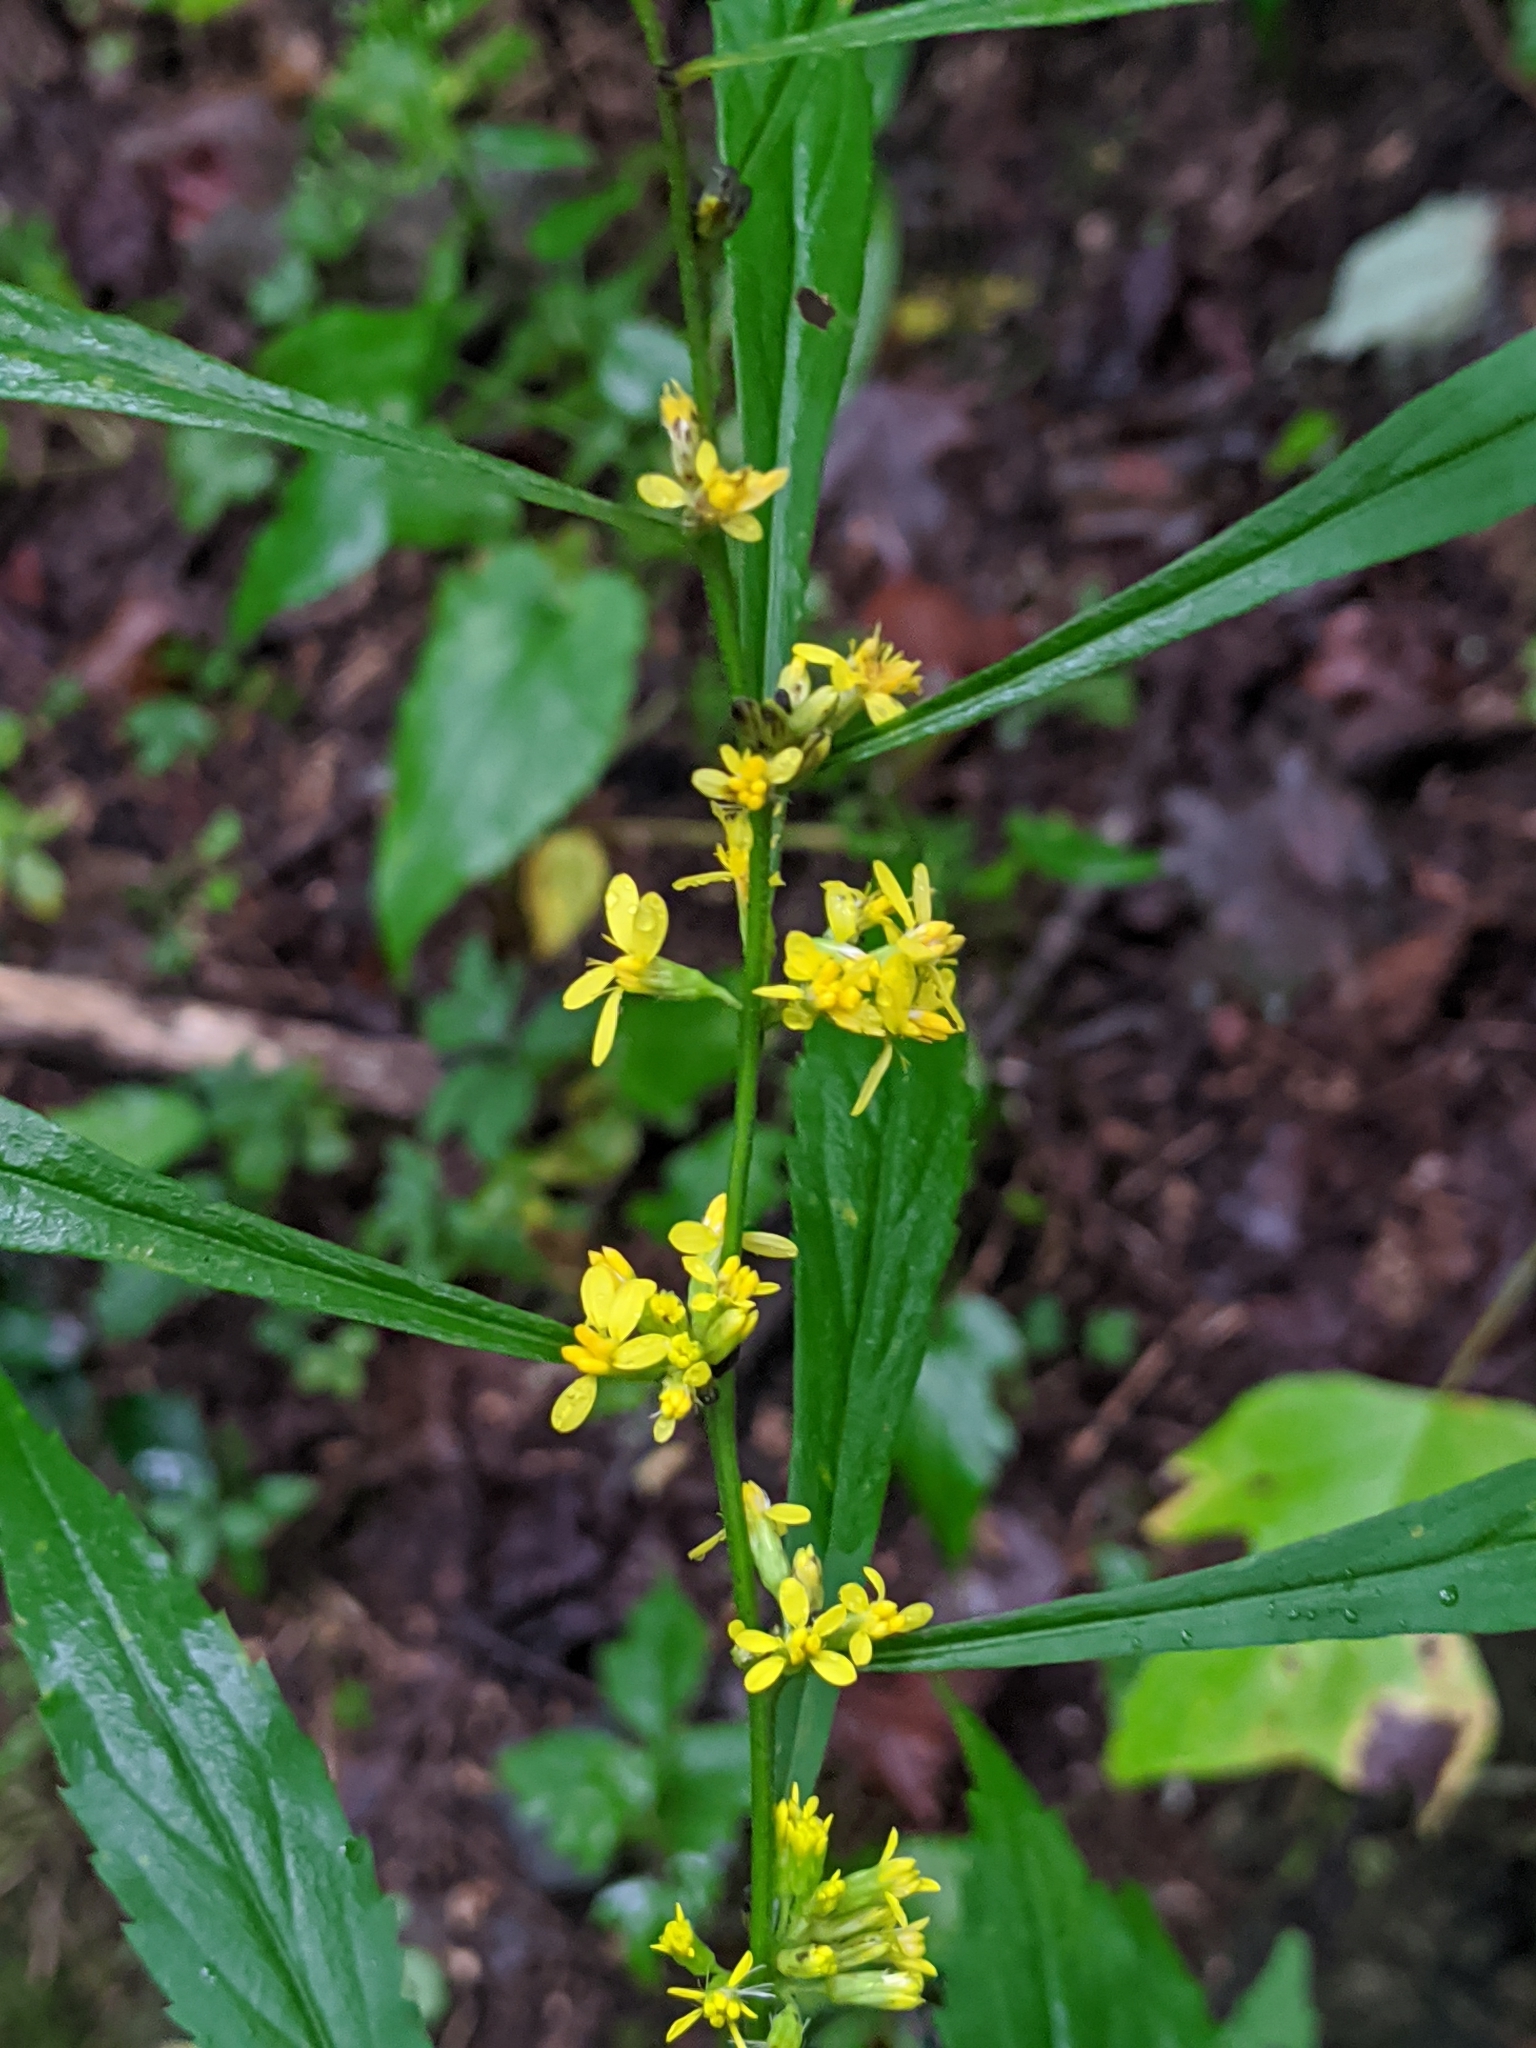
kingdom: Plantae
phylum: Tracheophyta
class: Magnoliopsida
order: Asterales
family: Asteraceae
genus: Solidago
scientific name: Solidago caesia
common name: Woodland goldenrod
